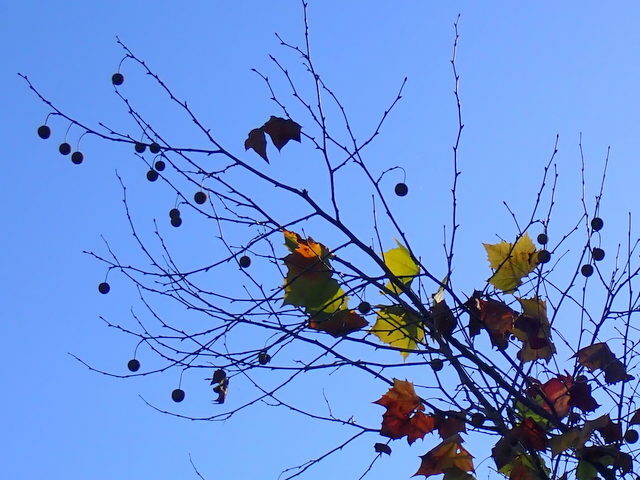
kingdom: Plantae
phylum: Tracheophyta
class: Magnoliopsida
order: Proteales
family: Platanaceae
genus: Platanus
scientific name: Platanus occidentalis
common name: American sycamore
